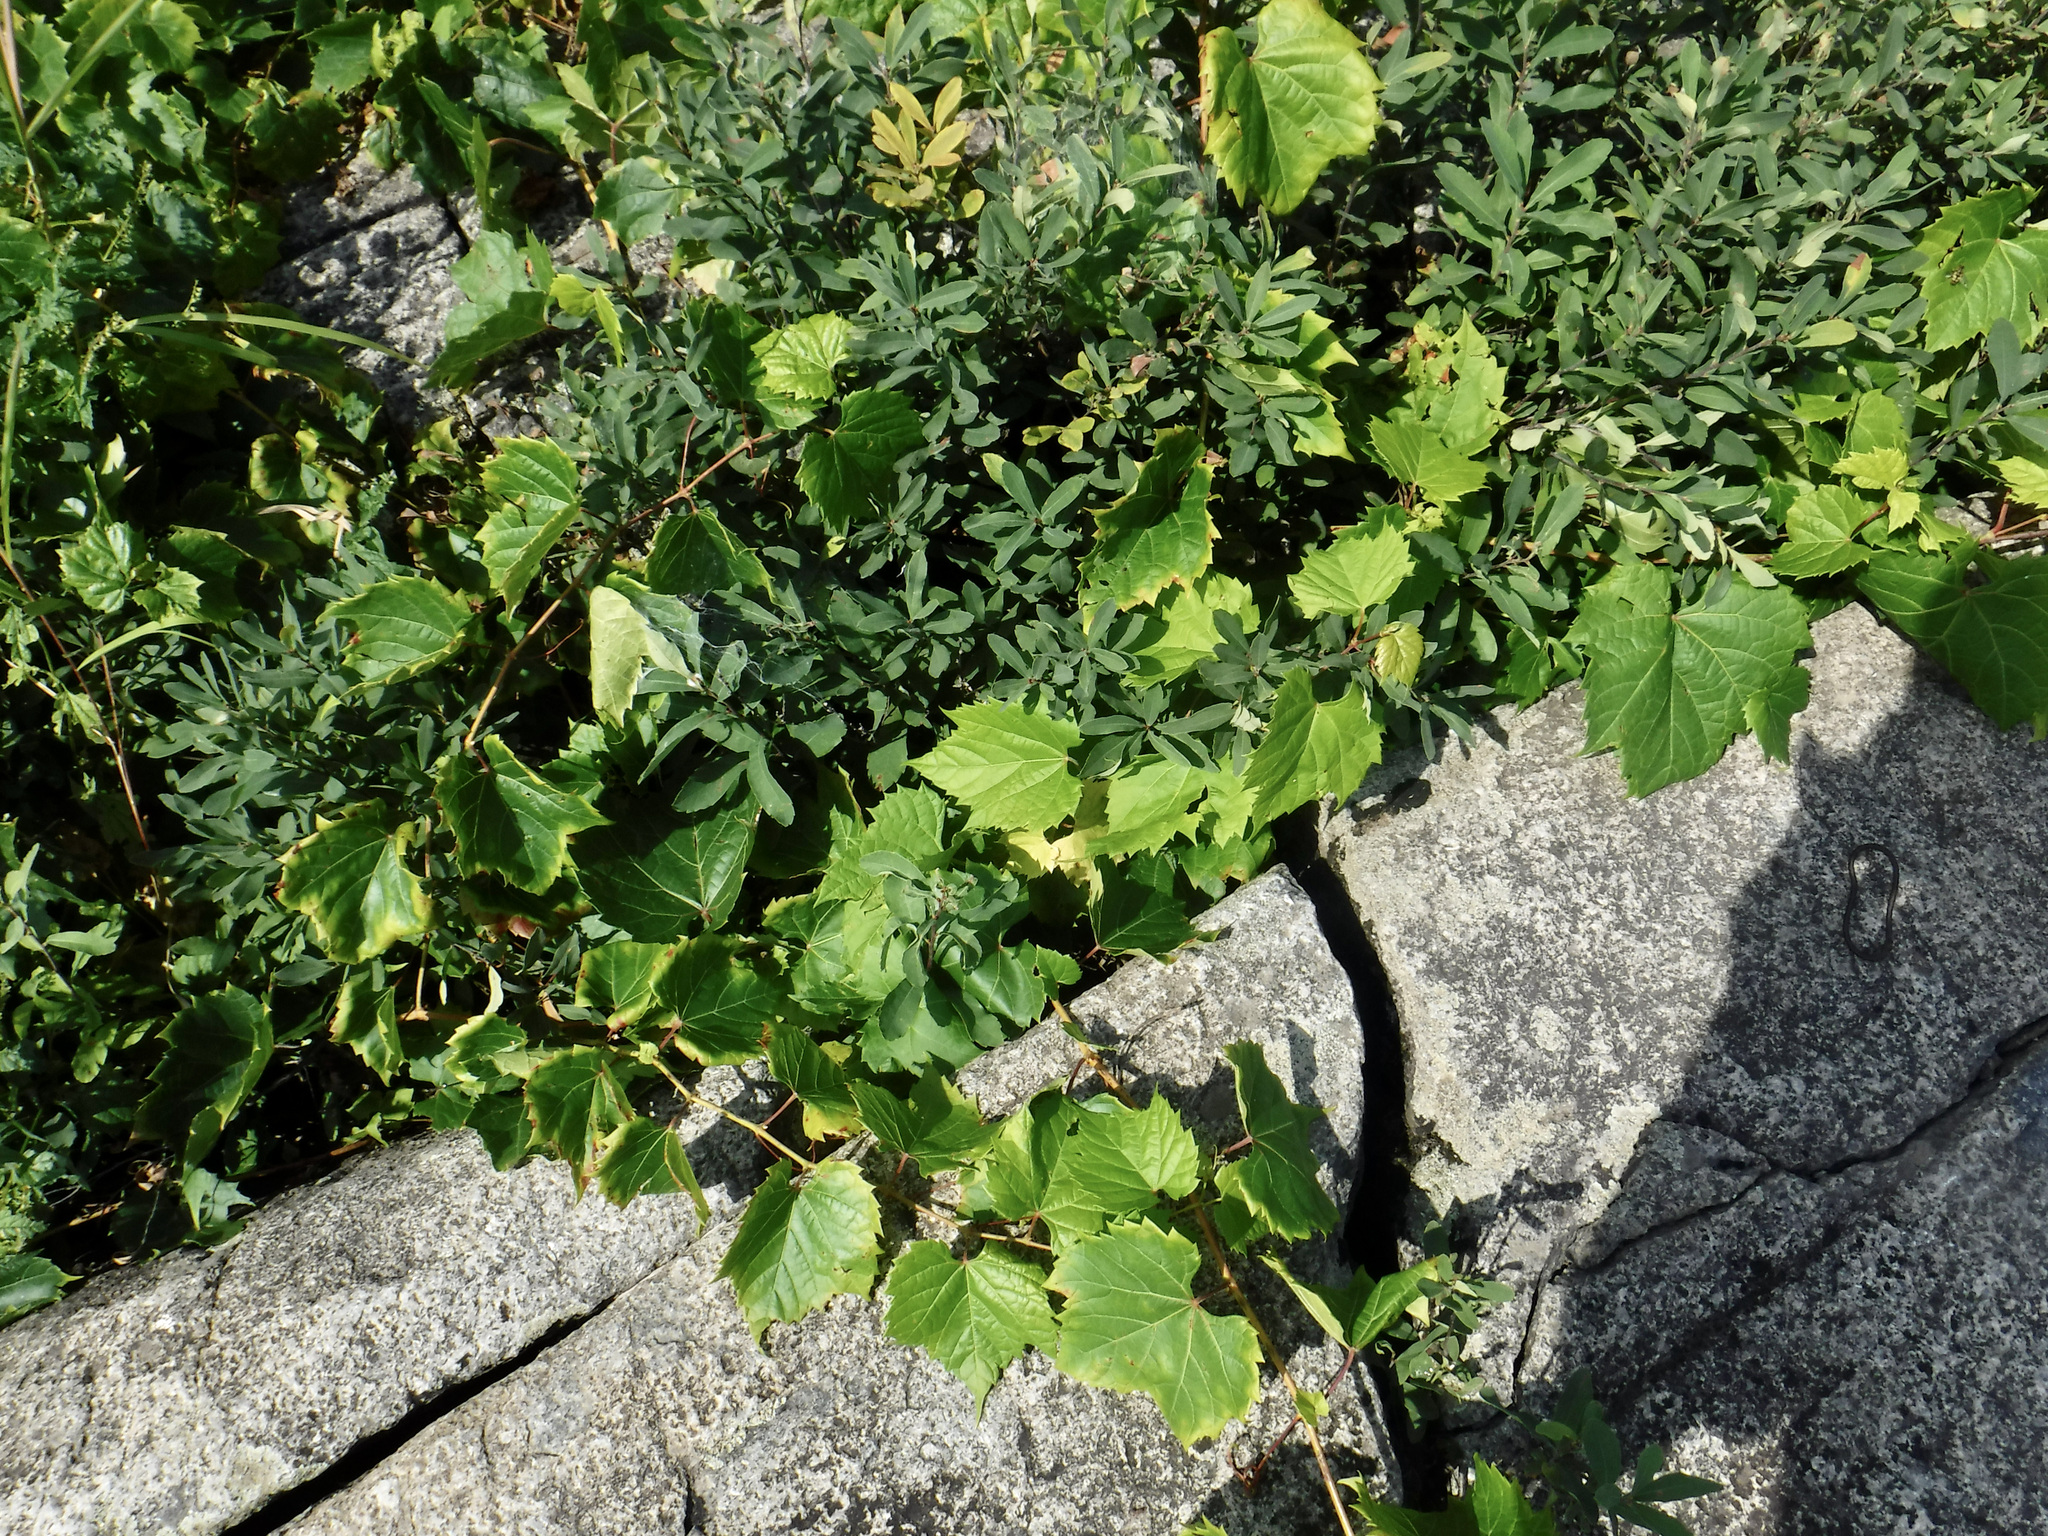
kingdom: Plantae
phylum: Tracheophyta
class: Magnoliopsida
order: Vitales
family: Vitaceae
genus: Vitis
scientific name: Vitis riparia
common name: Frost grape
